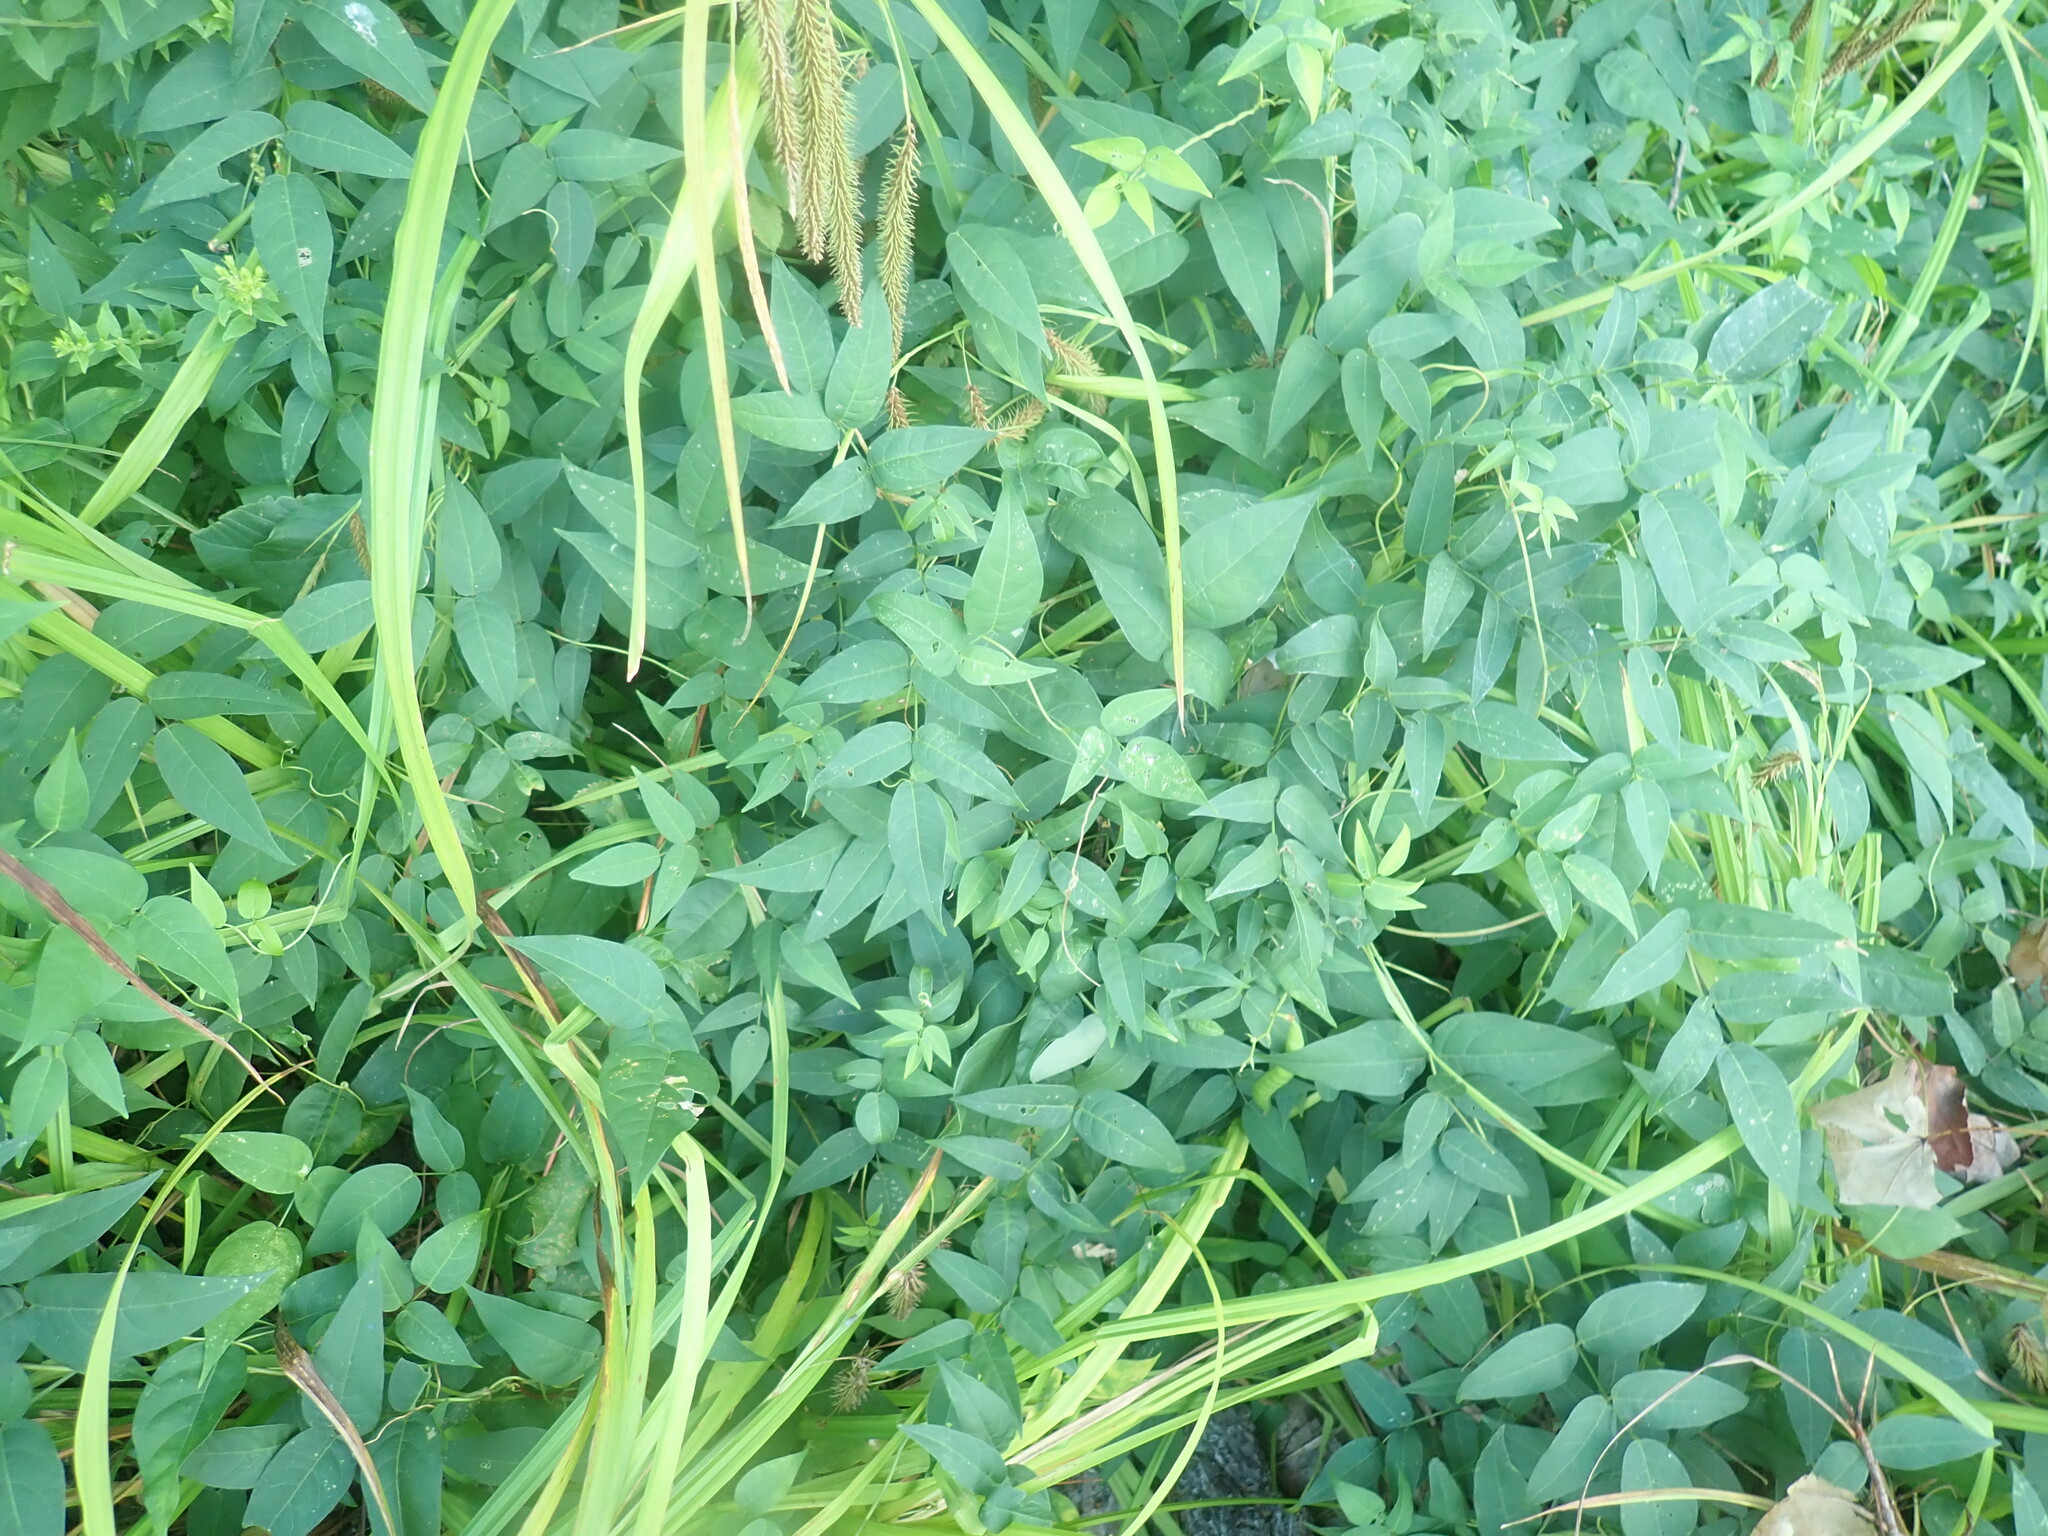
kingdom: Plantae
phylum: Tracheophyta
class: Magnoliopsida
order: Fabales
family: Fabaceae
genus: Apios
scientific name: Apios americana
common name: American potato-bean
